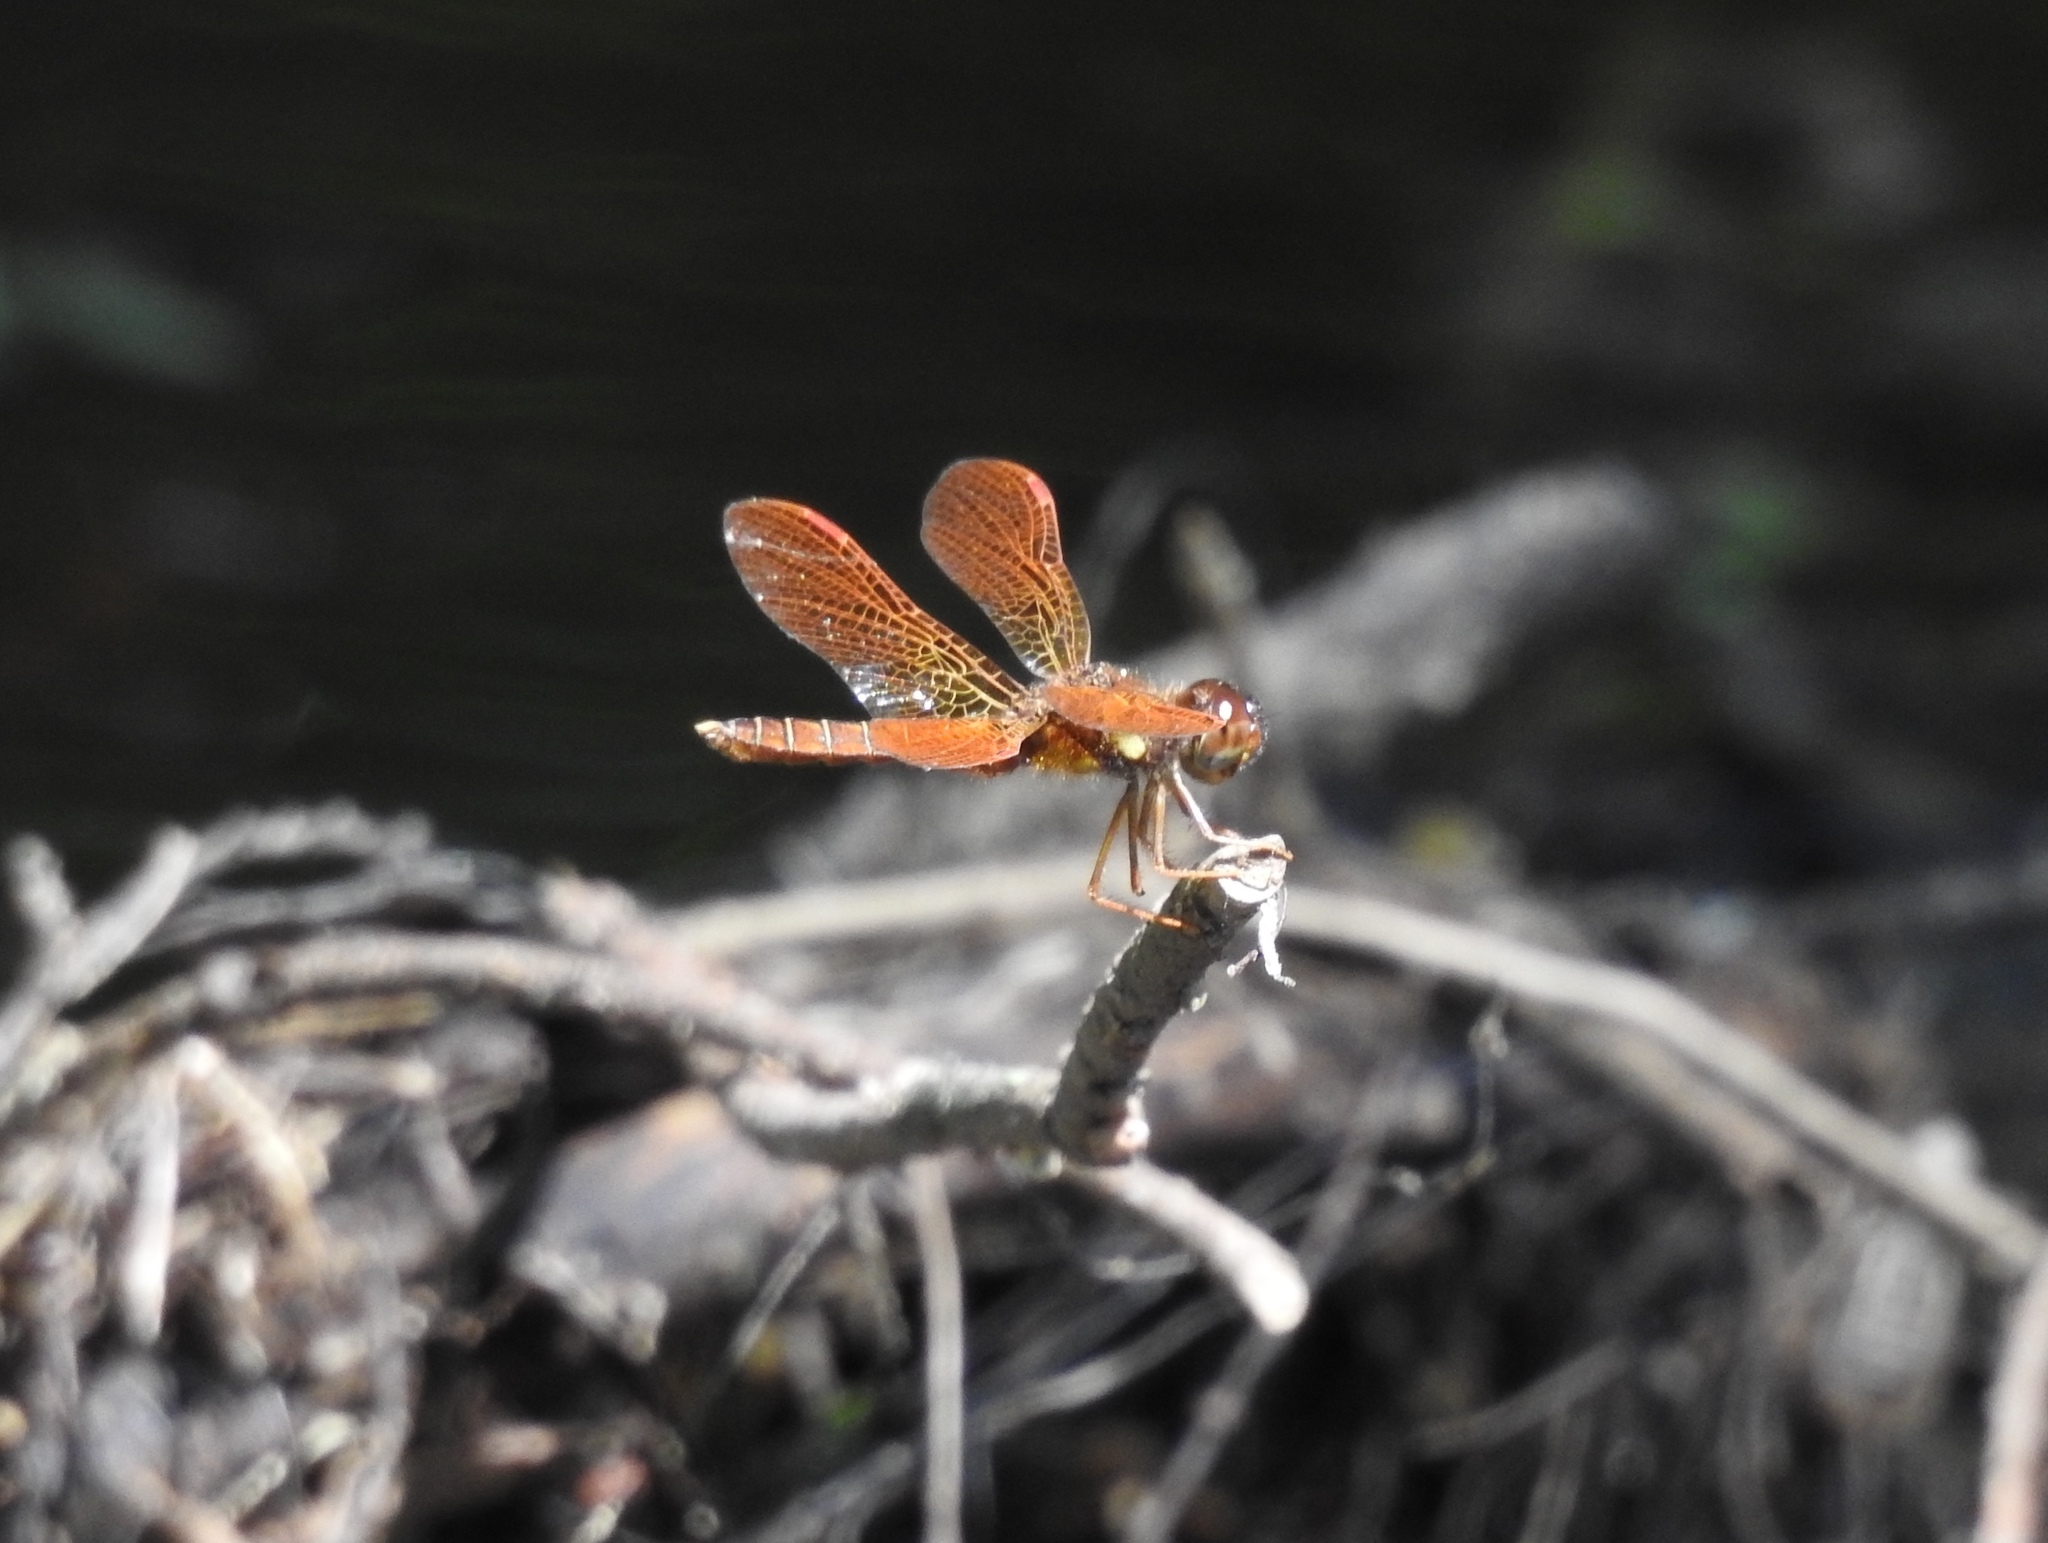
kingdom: Animalia
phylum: Arthropoda
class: Insecta
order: Odonata
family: Libellulidae
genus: Perithemis
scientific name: Perithemis tenera
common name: Eastern amberwing
